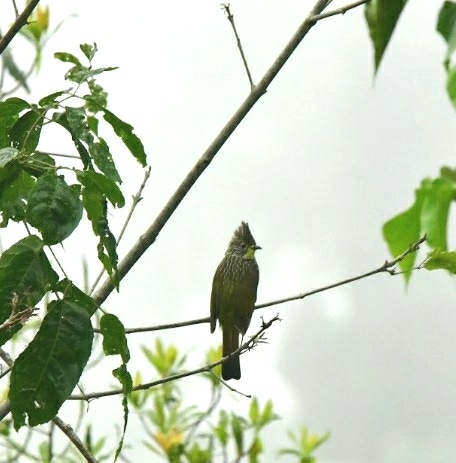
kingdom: Animalia
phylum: Chordata
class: Aves
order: Passeriformes
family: Pycnonotidae
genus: Pycnonotus
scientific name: Pycnonotus striatus
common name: Striated bulbul
